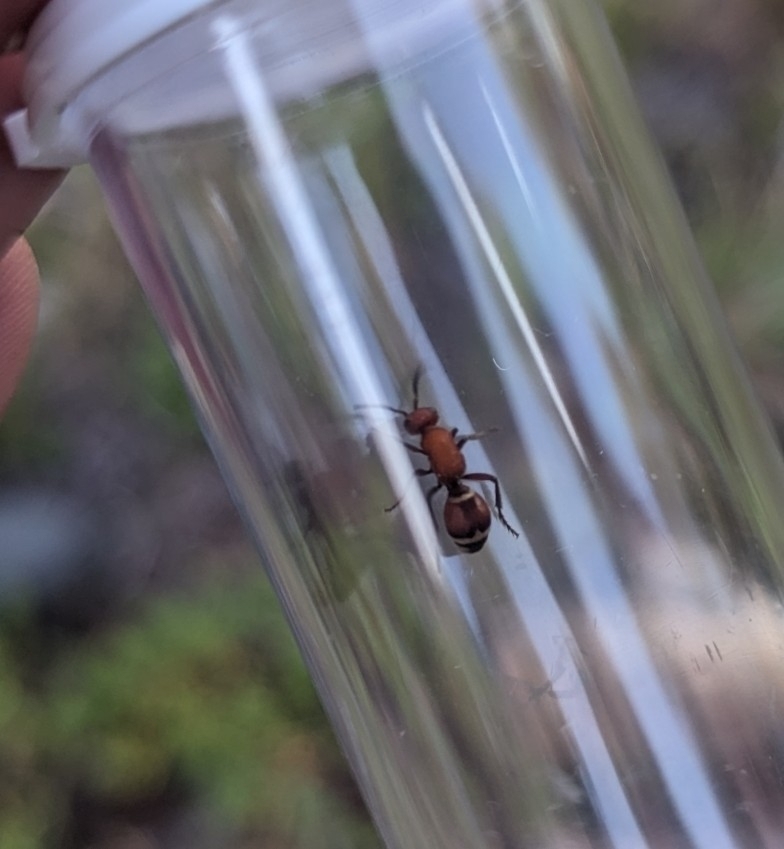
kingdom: Animalia
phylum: Arthropoda
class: Insecta
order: Hymenoptera
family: Mutillidae
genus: Timulla
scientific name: Timulla
